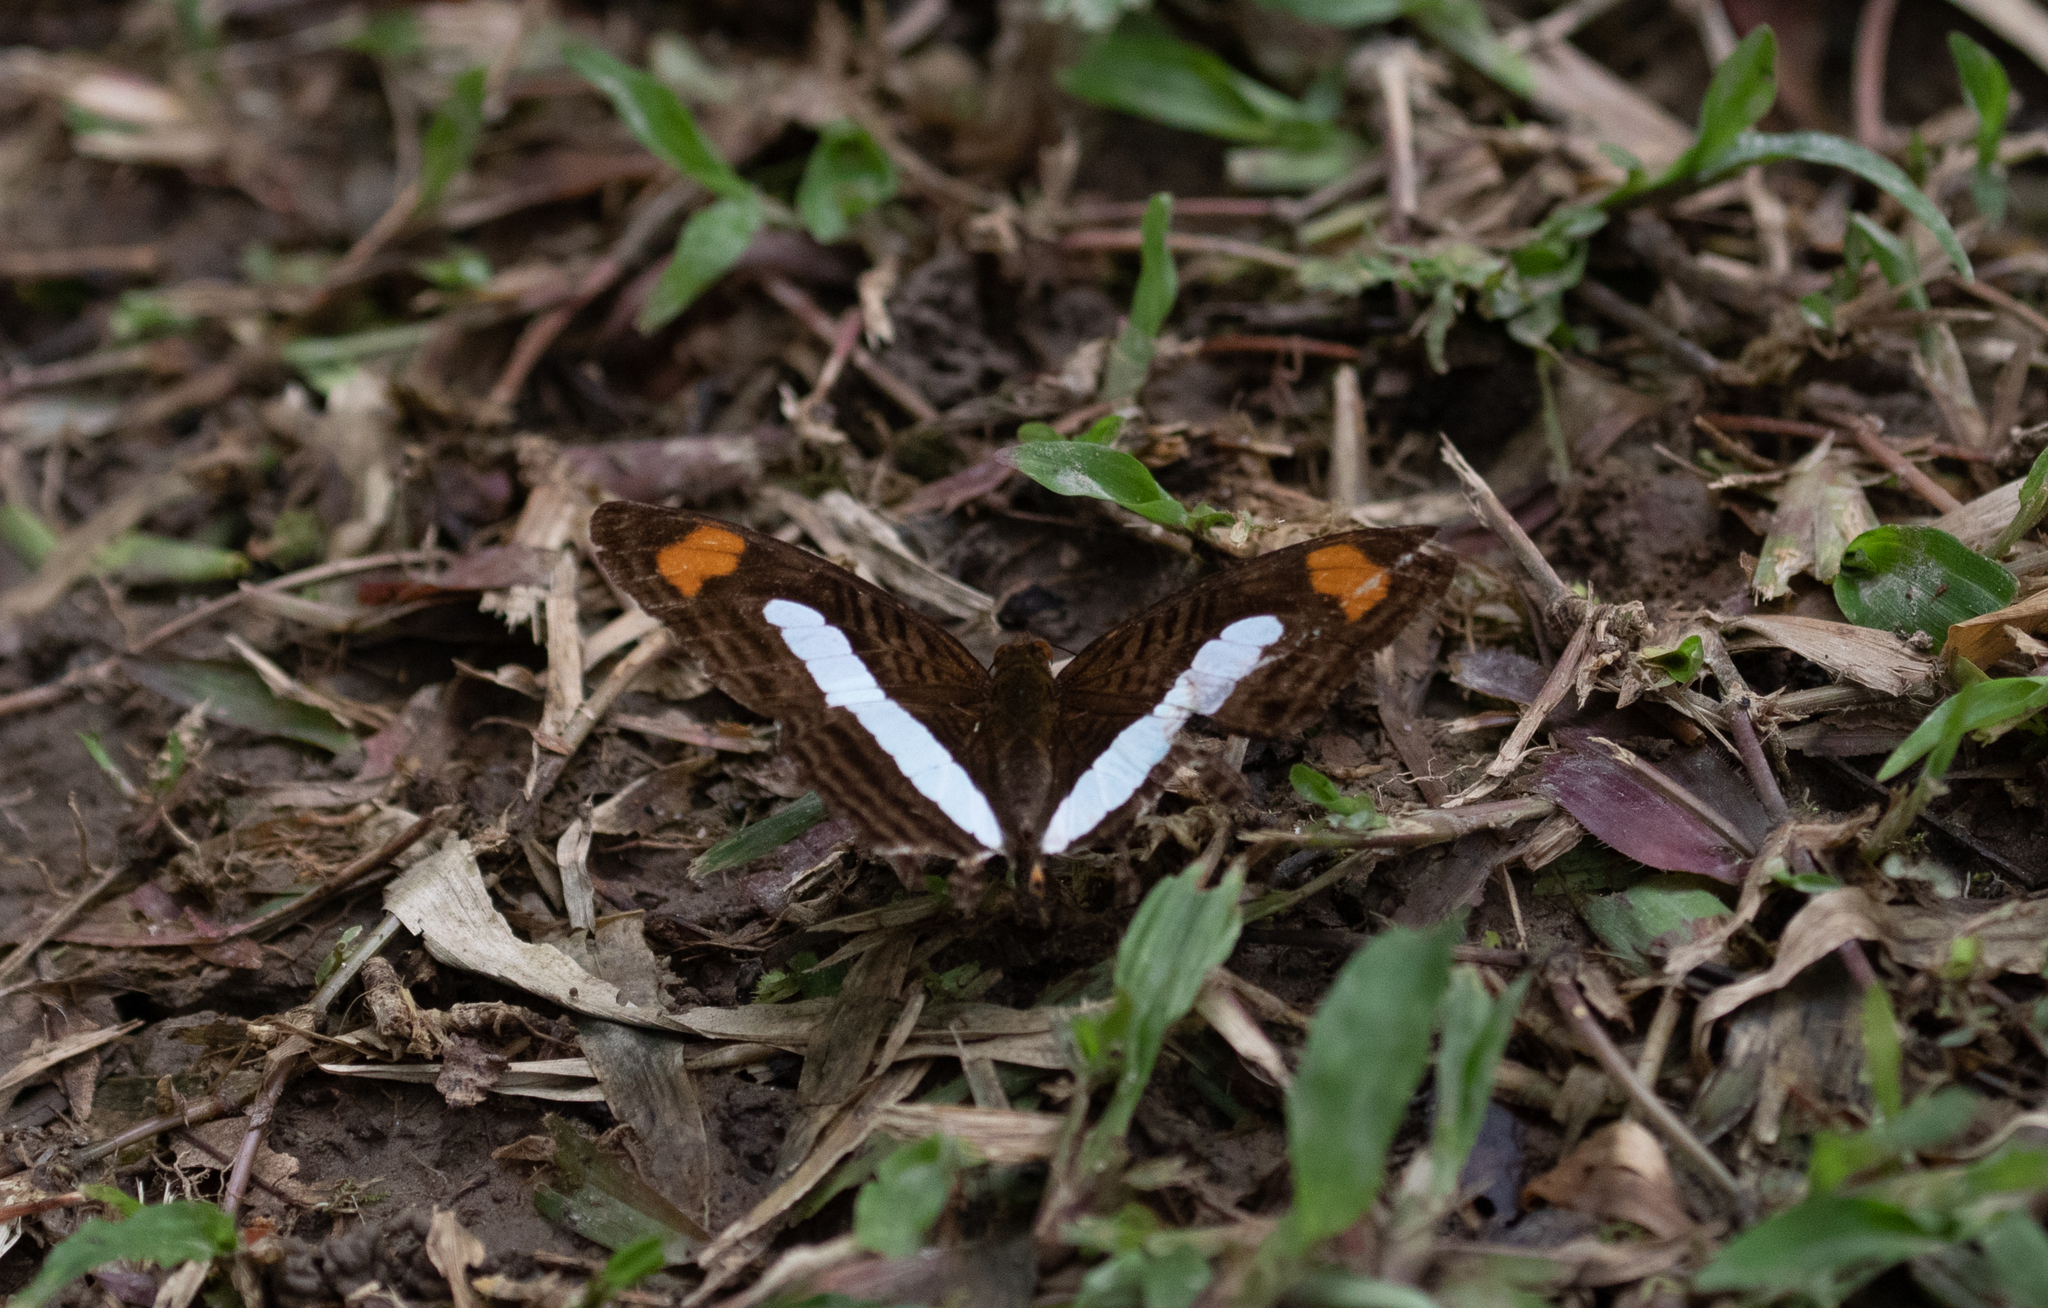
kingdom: Animalia
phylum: Arthropoda
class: Insecta
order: Lepidoptera
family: Nymphalidae
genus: Limenitis
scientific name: Limenitis Adelpha iphiclus
